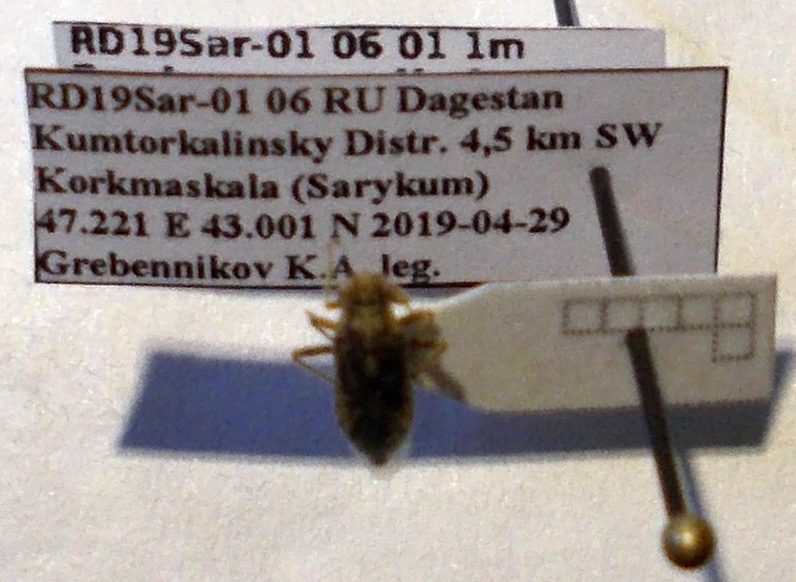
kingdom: Animalia
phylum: Arthropoda
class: Insecta
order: Hemiptera
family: Rhopalidae
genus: Brachycarenus
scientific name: Brachycarenus tigrinus
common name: Scentless plant bug
